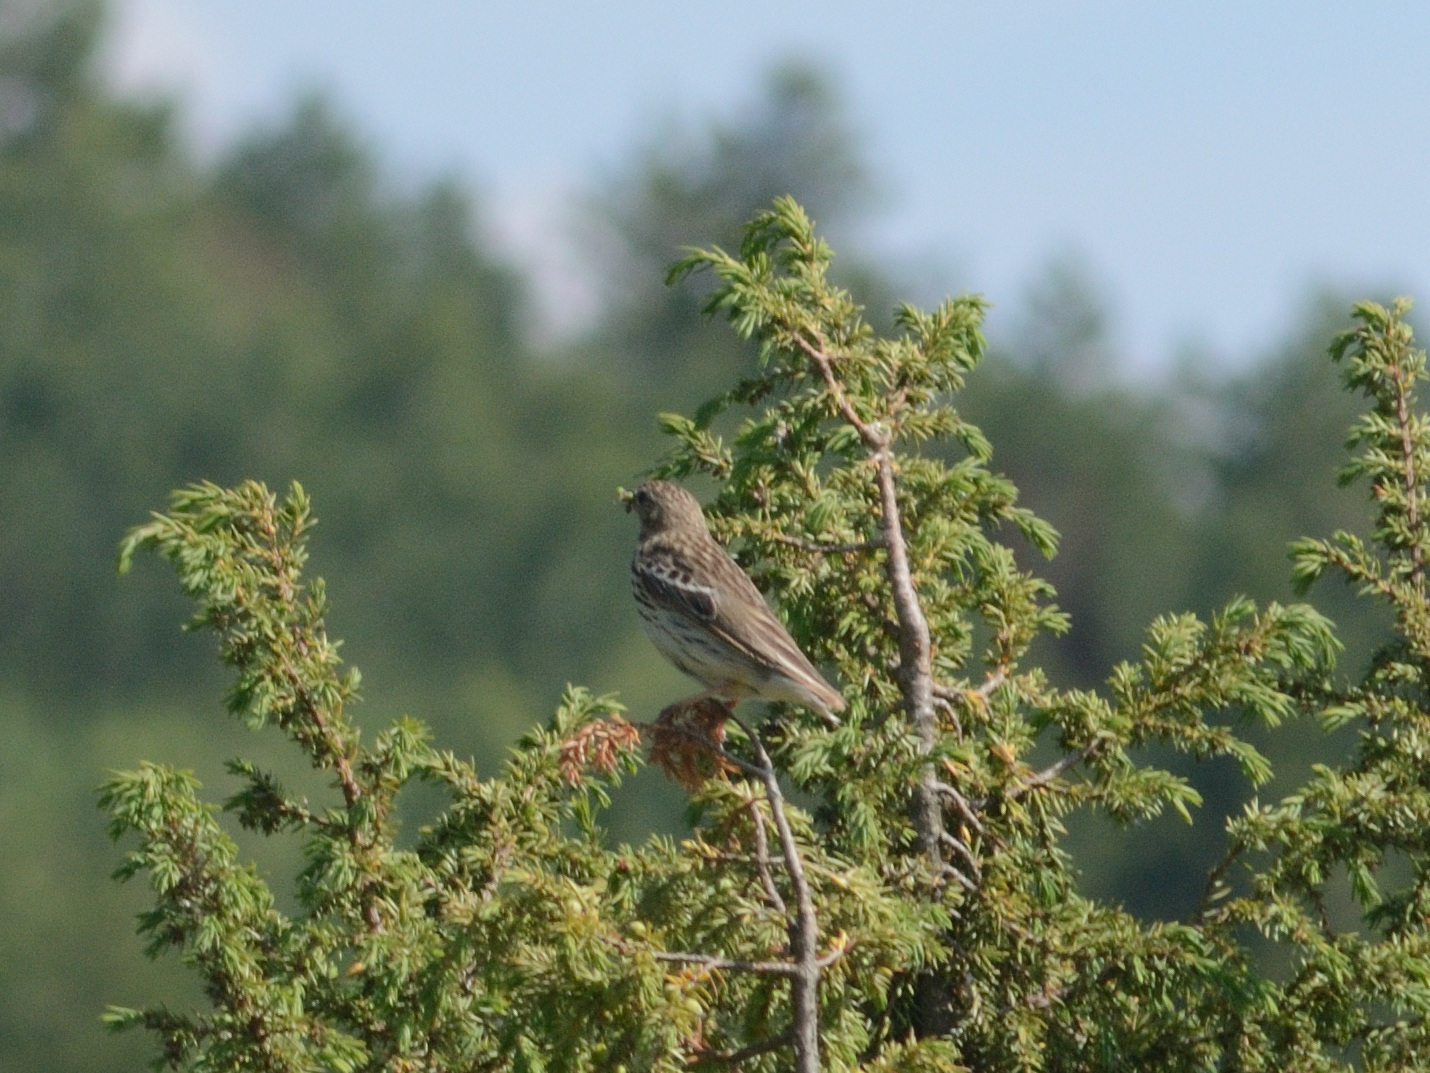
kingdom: Animalia
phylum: Chordata
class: Aves
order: Passeriformes
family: Motacillidae
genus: Anthus
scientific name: Anthus trivialis
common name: Tree pipit
